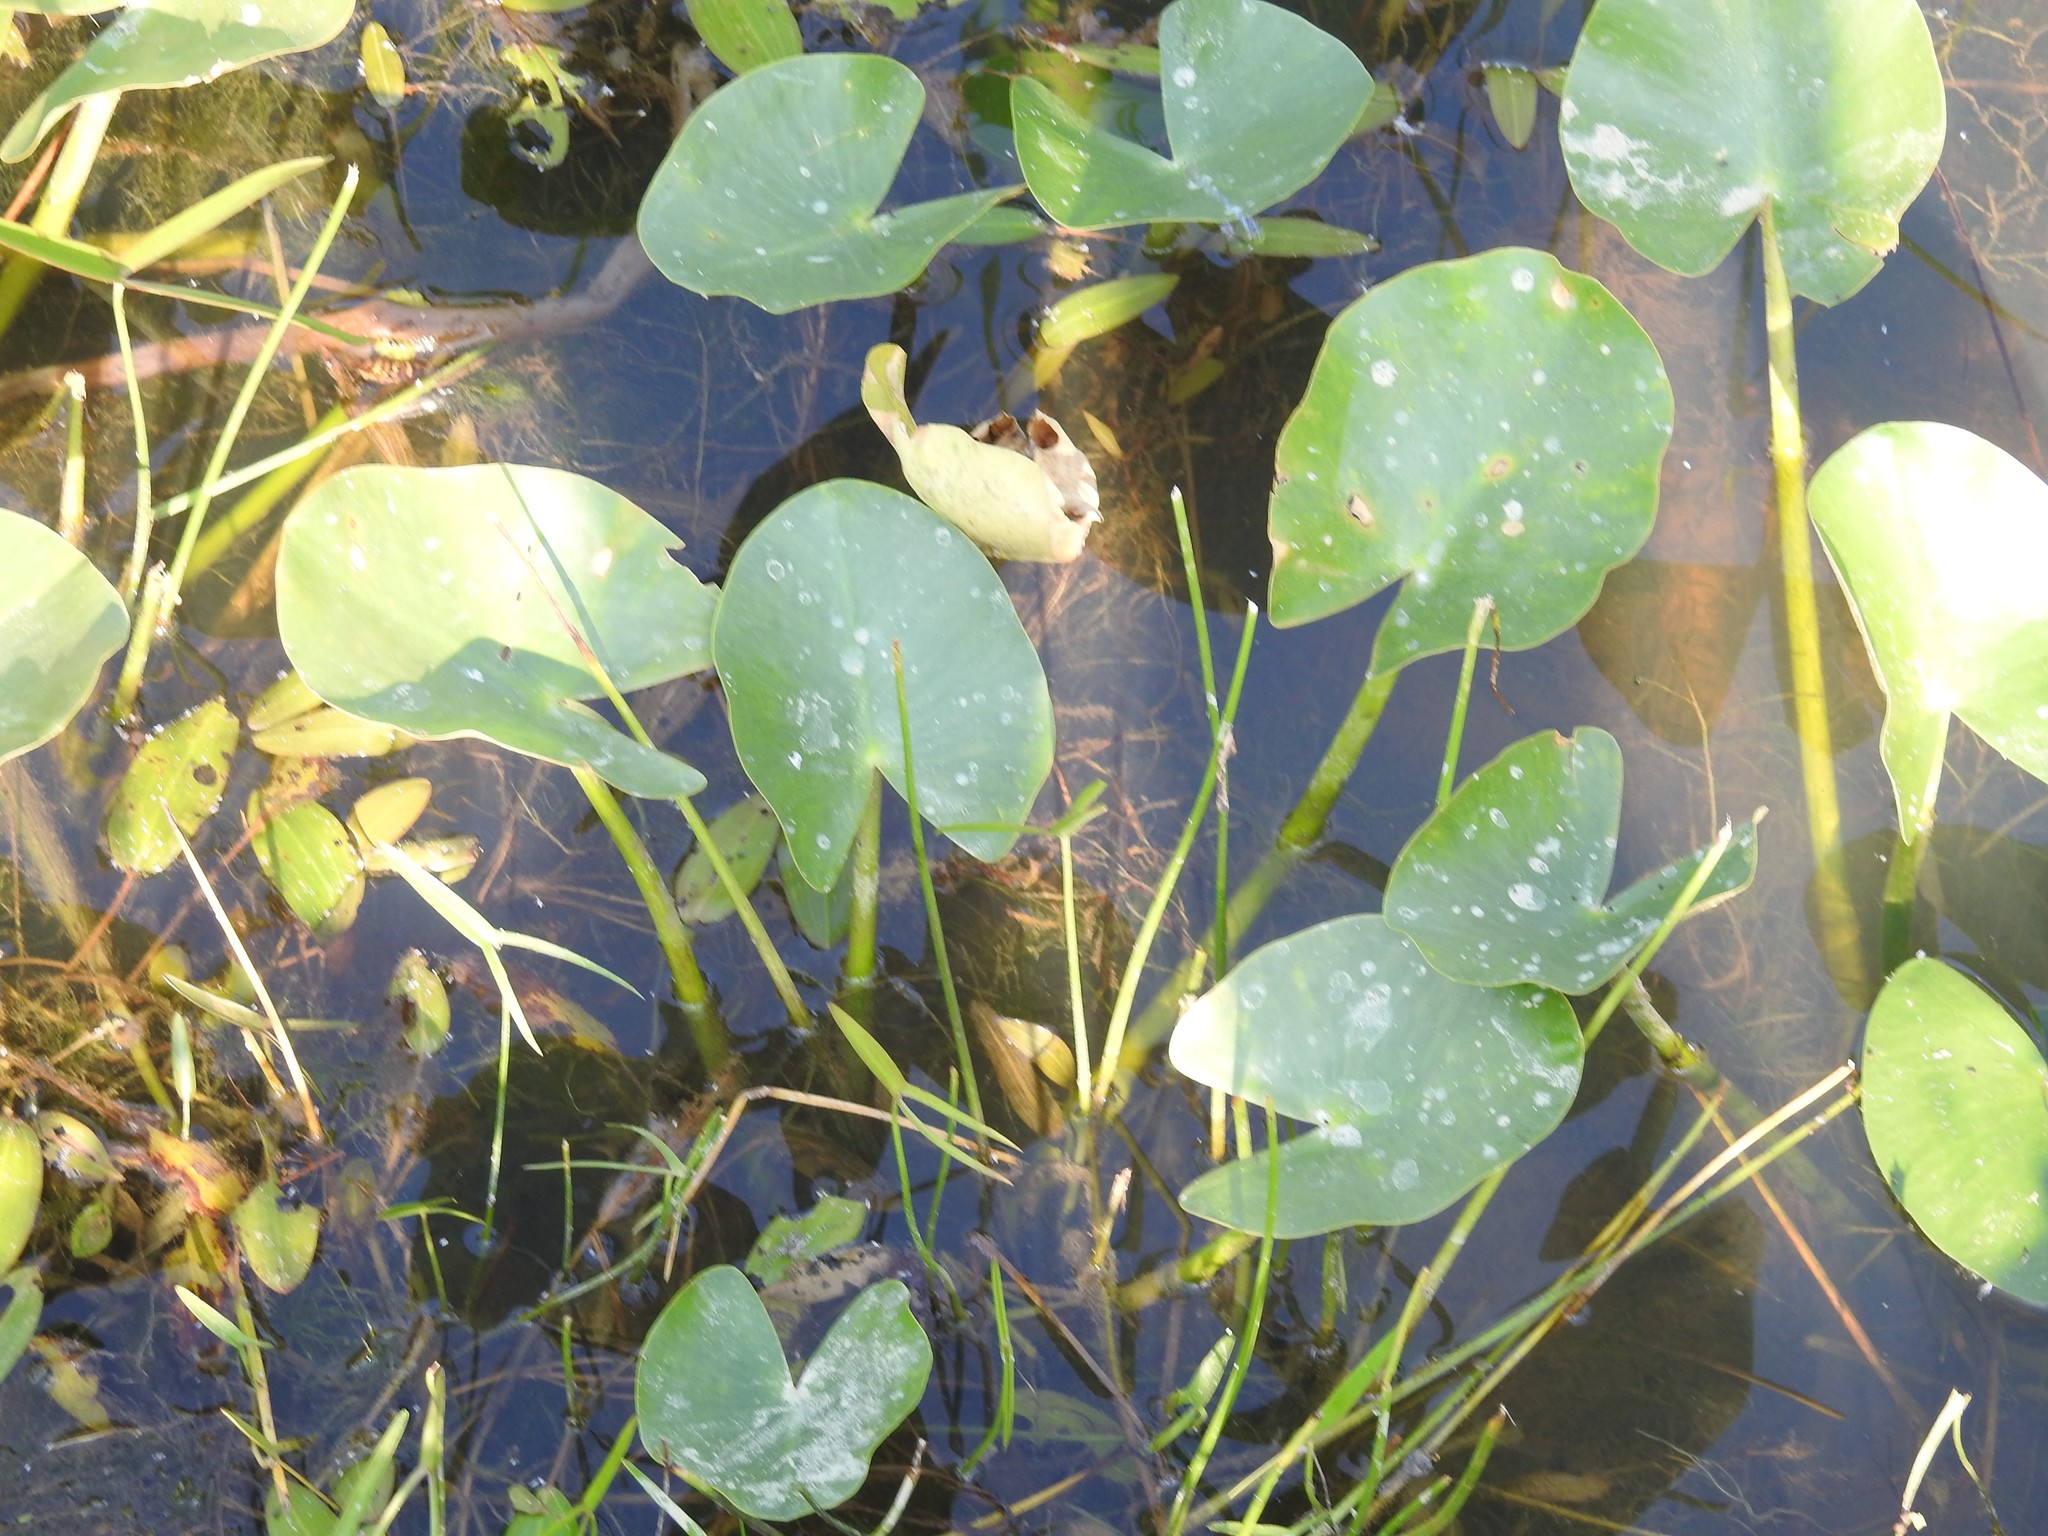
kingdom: Plantae
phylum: Tracheophyta
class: Magnoliopsida
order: Nymphaeales
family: Nymphaeaceae
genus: Nuphar
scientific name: Nuphar advena
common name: Spatter-dock
